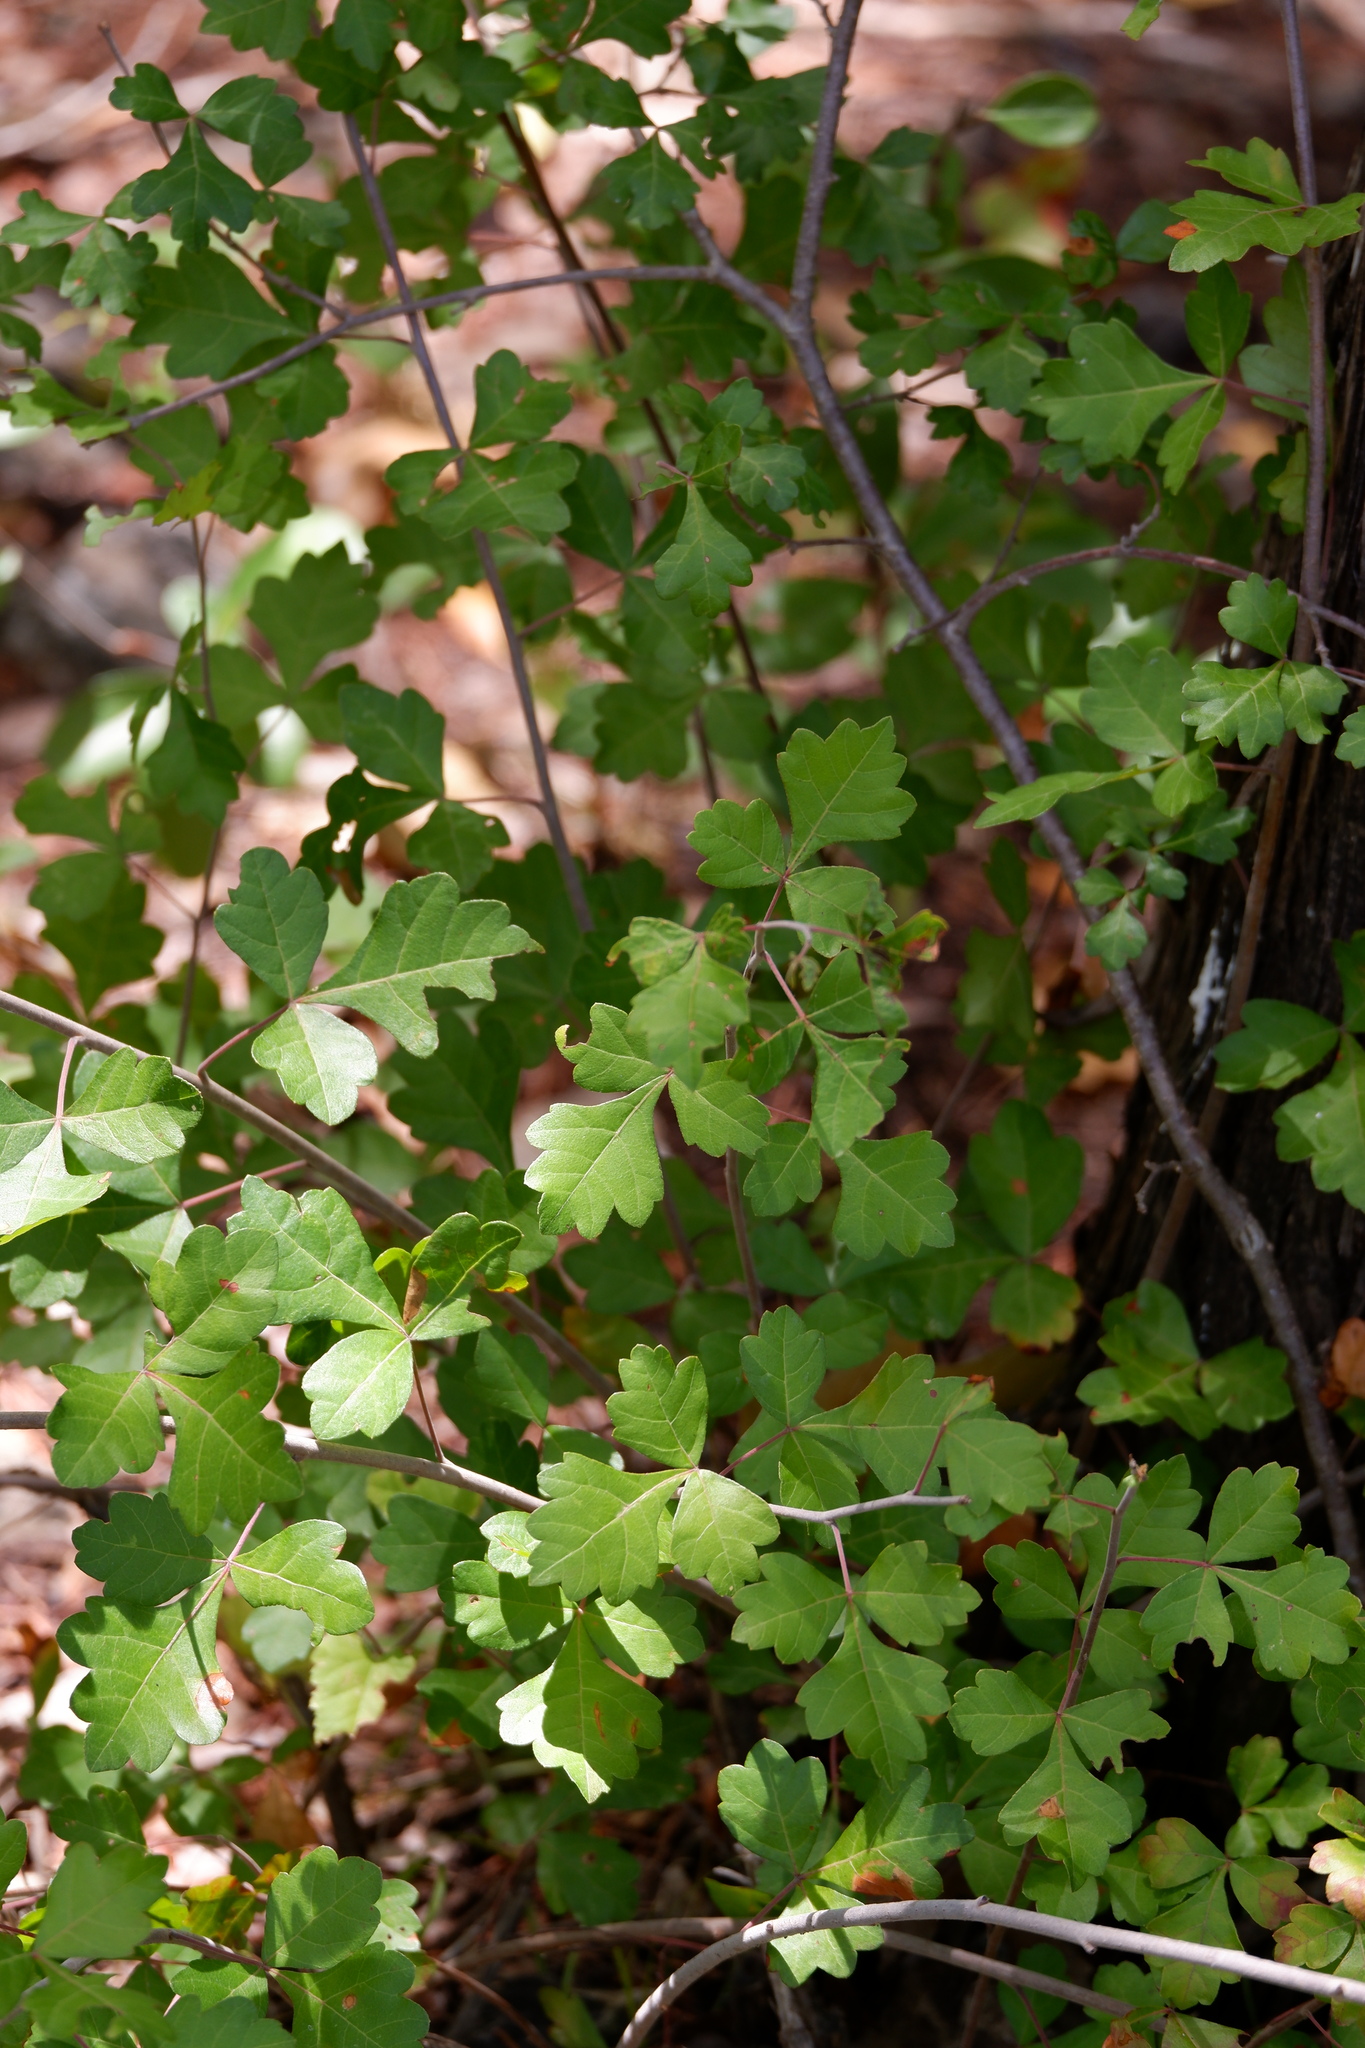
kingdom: Plantae
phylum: Tracheophyta
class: Magnoliopsida
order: Sapindales
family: Anacardiaceae
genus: Rhus
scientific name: Rhus trilobata
